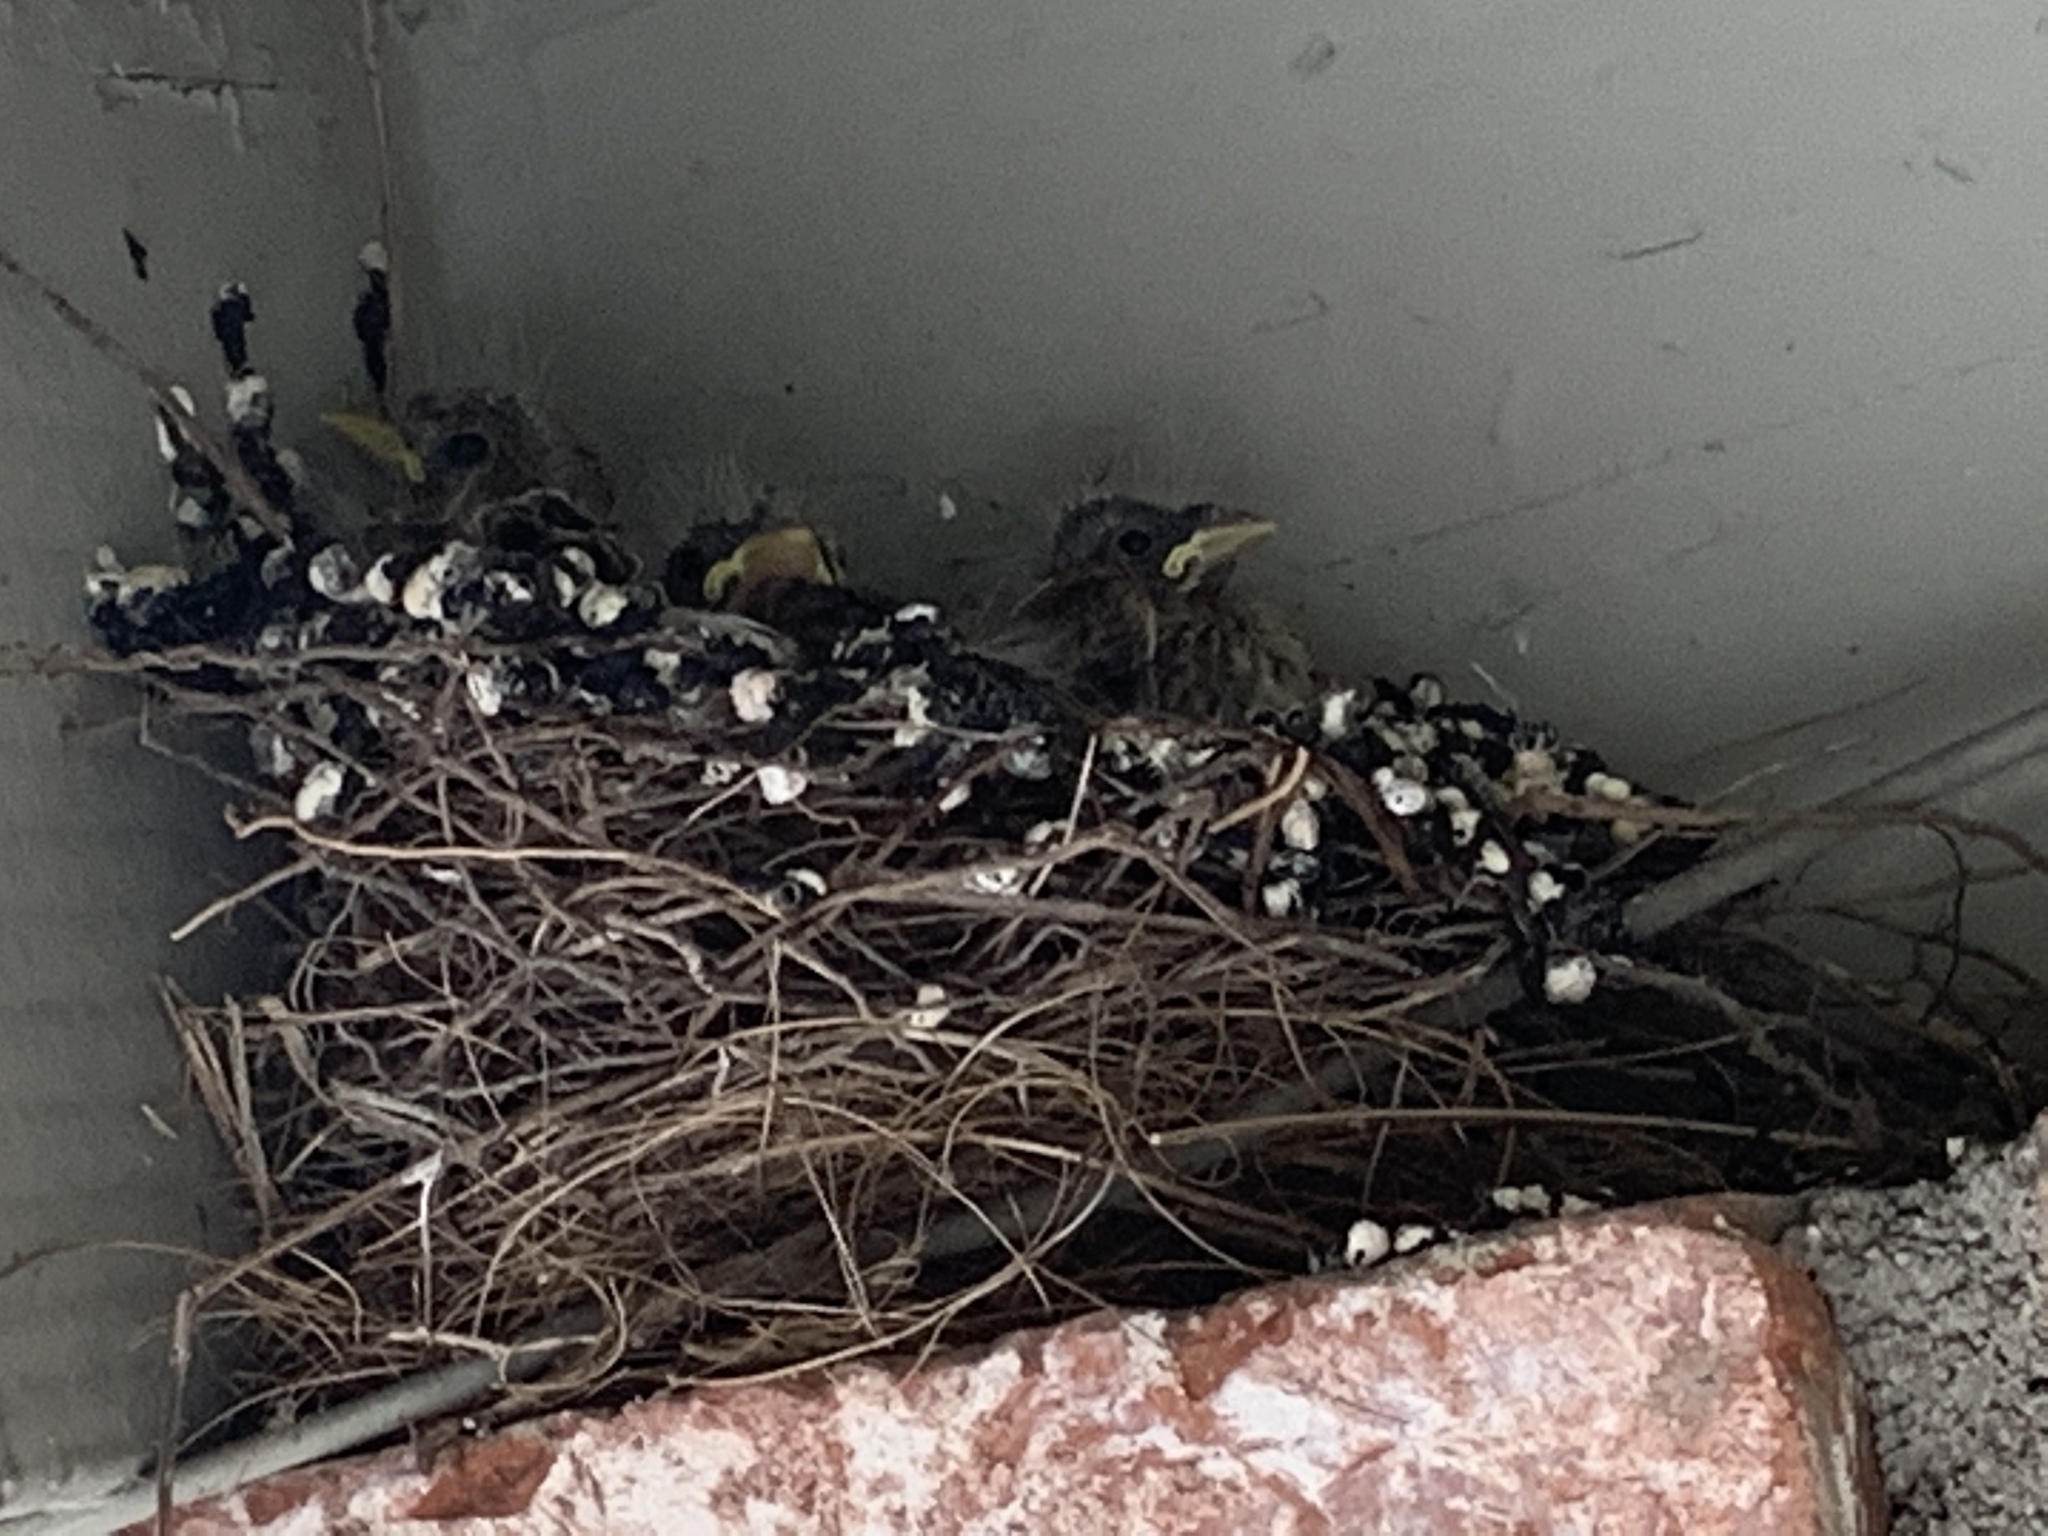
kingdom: Animalia
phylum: Chordata
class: Aves
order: Passeriformes
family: Fringillidae
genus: Haemorhous
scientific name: Haemorhous mexicanus
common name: House finch
